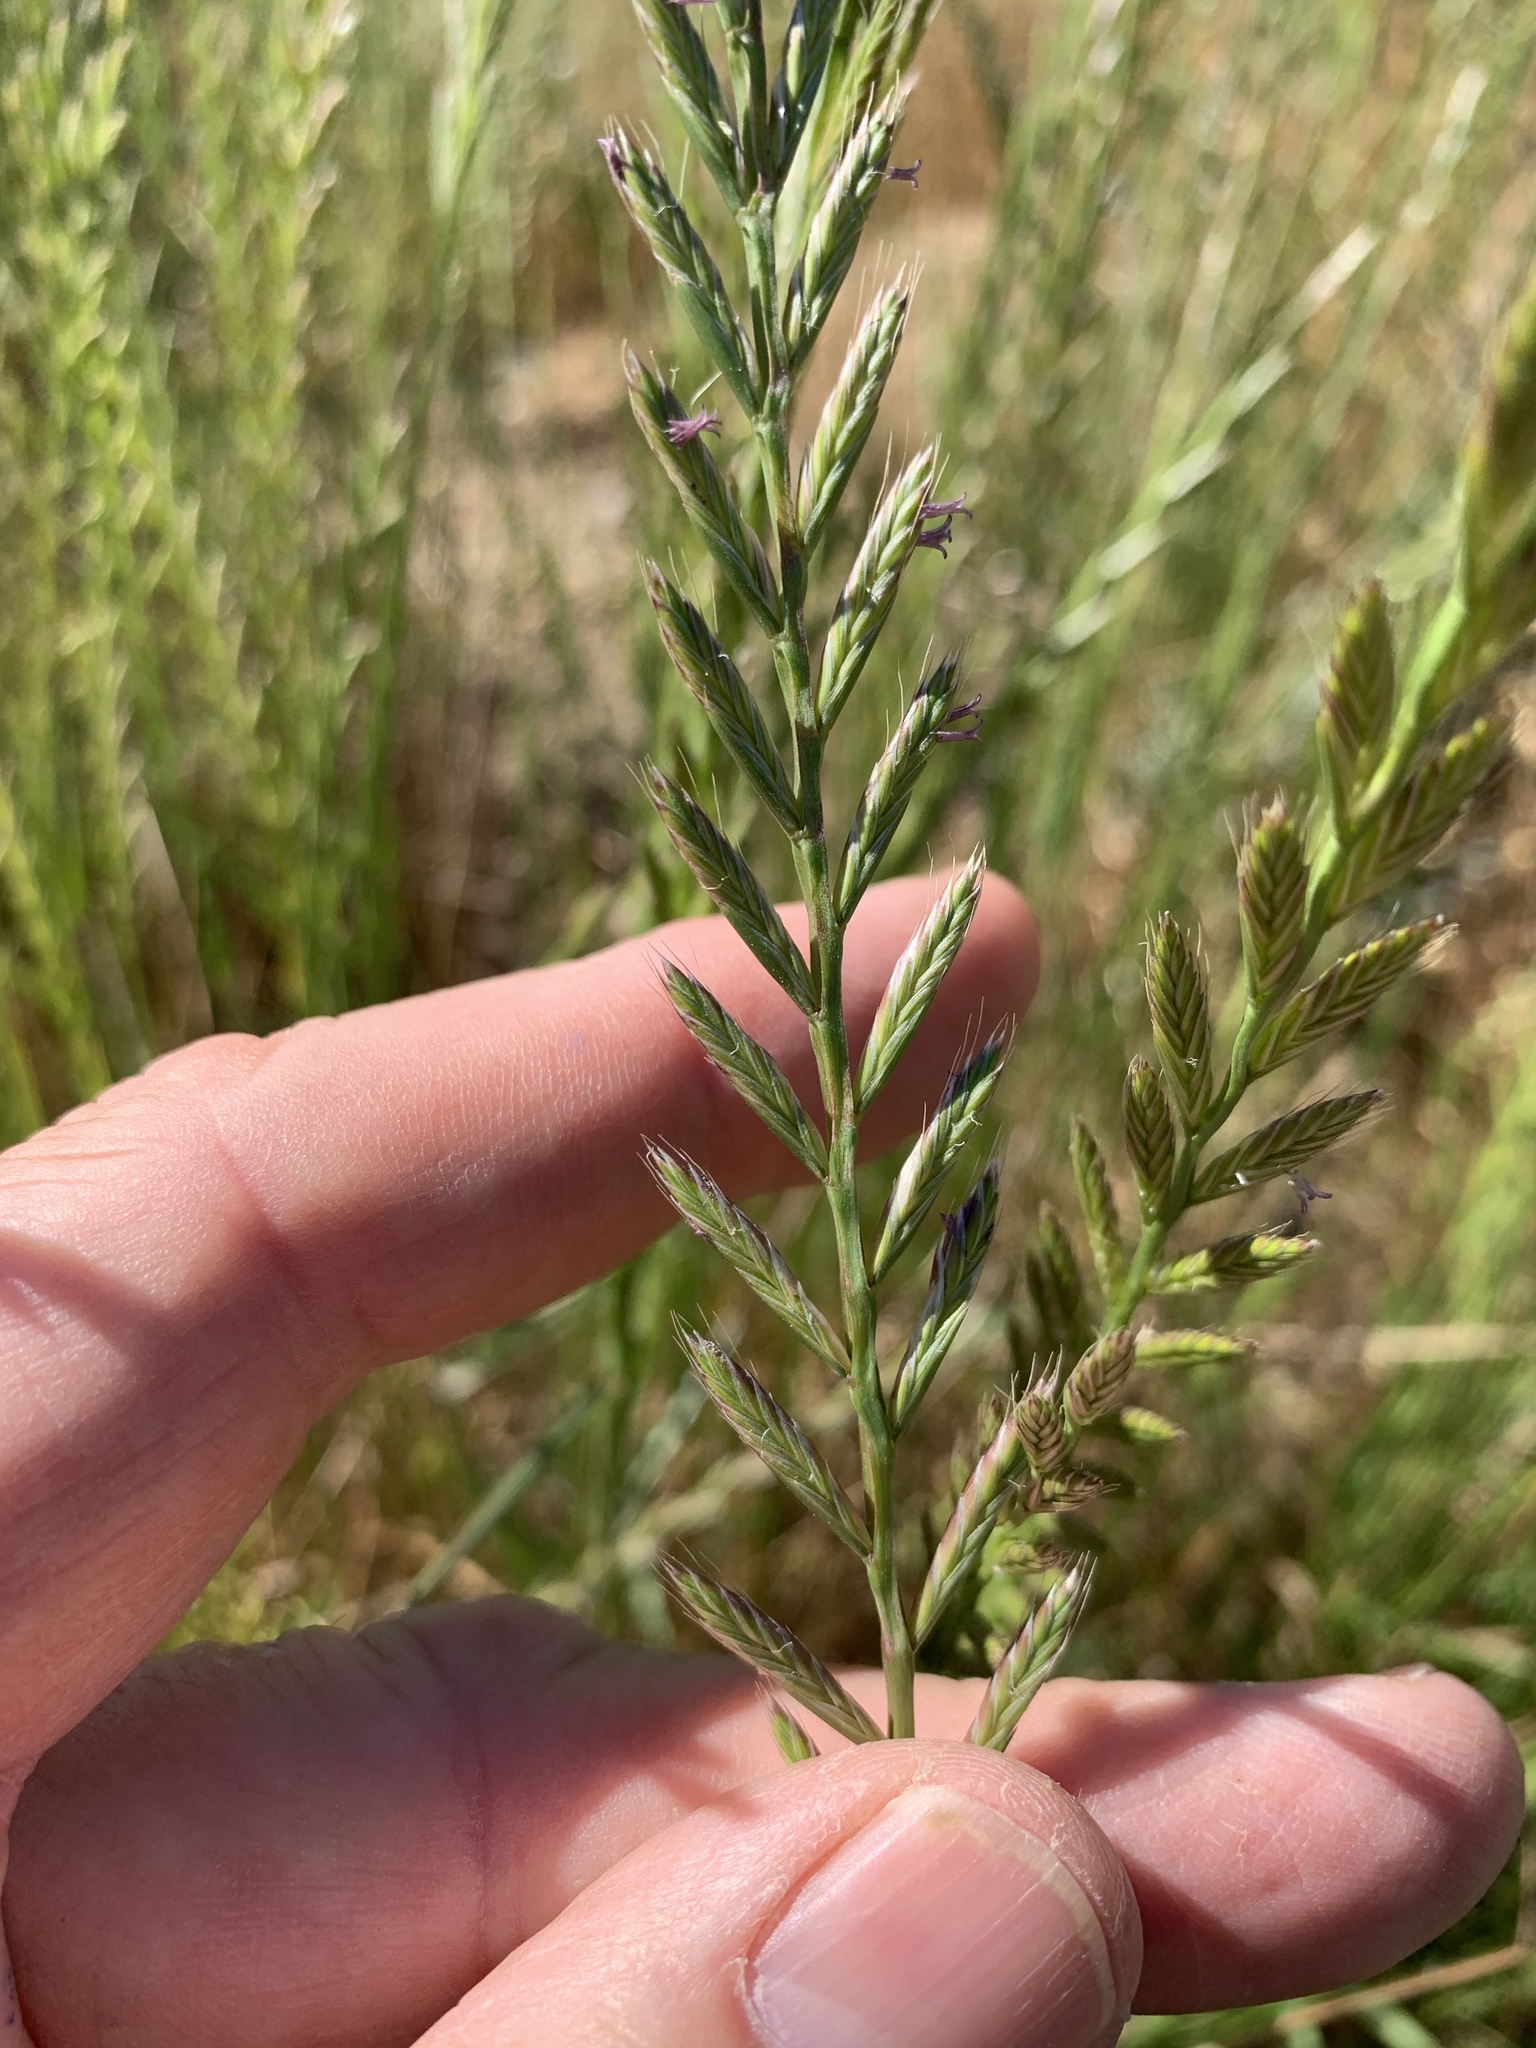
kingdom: Plantae
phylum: Tracheophyta
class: Liliopsida
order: Poales
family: Poaceae
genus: Lolium
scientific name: Lolium multiflorum
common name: Annual ryegrass
